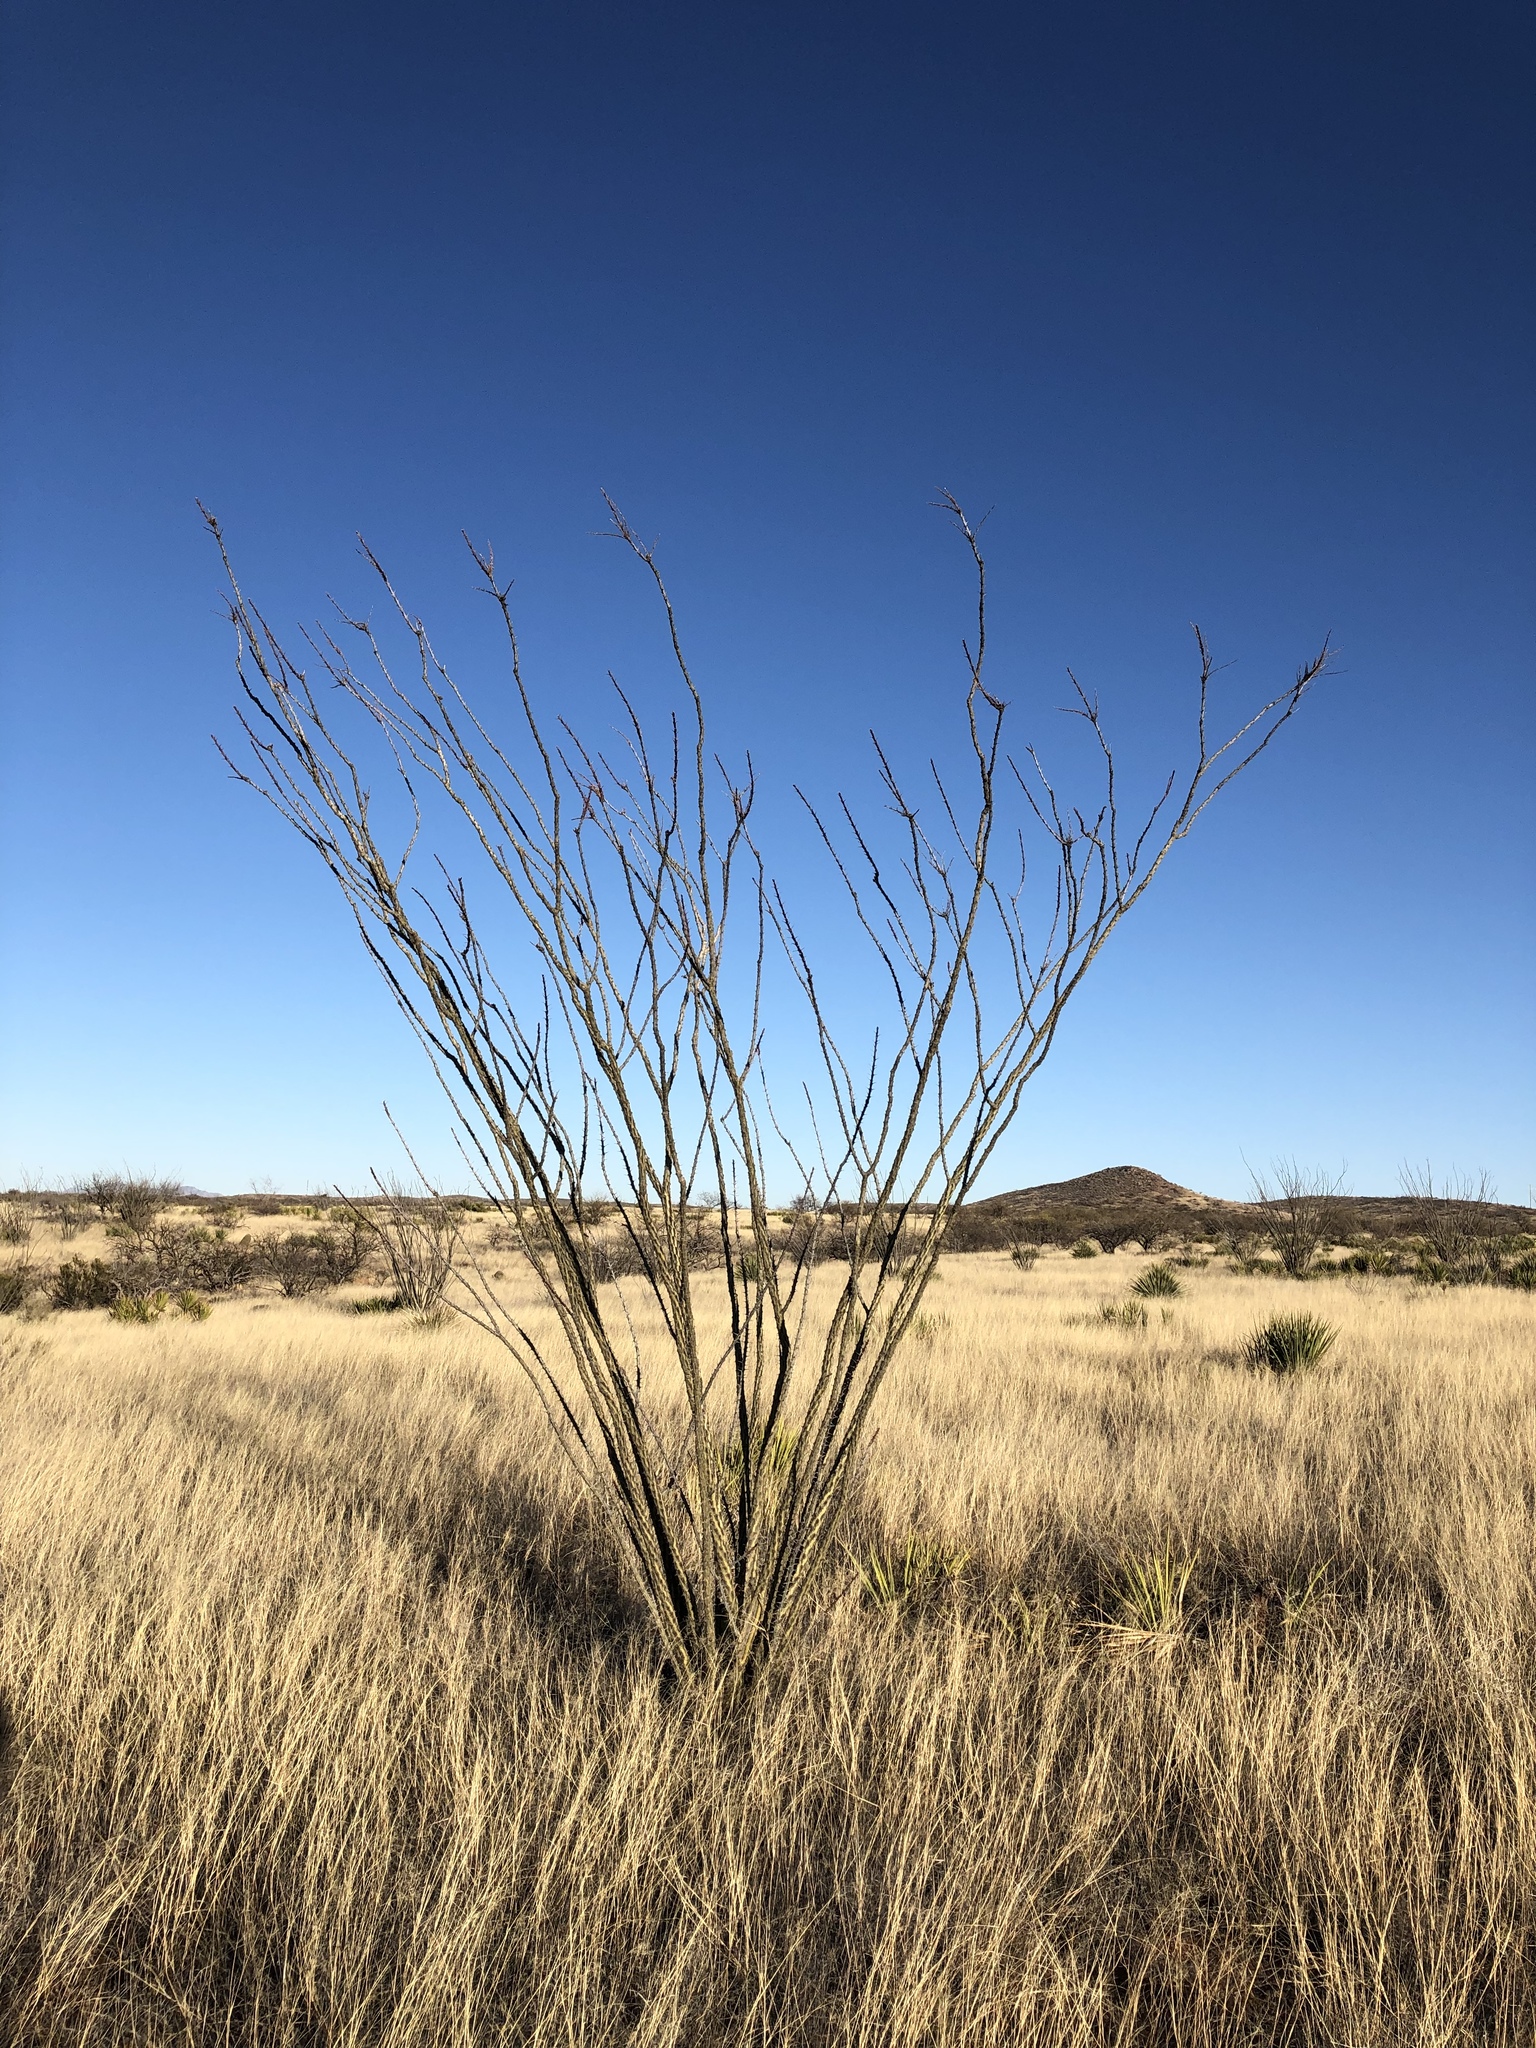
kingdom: Plantae
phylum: Tracheophyta
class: Magnoliopsida
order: Ericales
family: Fouquieriaceae
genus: Fouquieria
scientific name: Fouquieria splendens
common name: Vine-cactus
